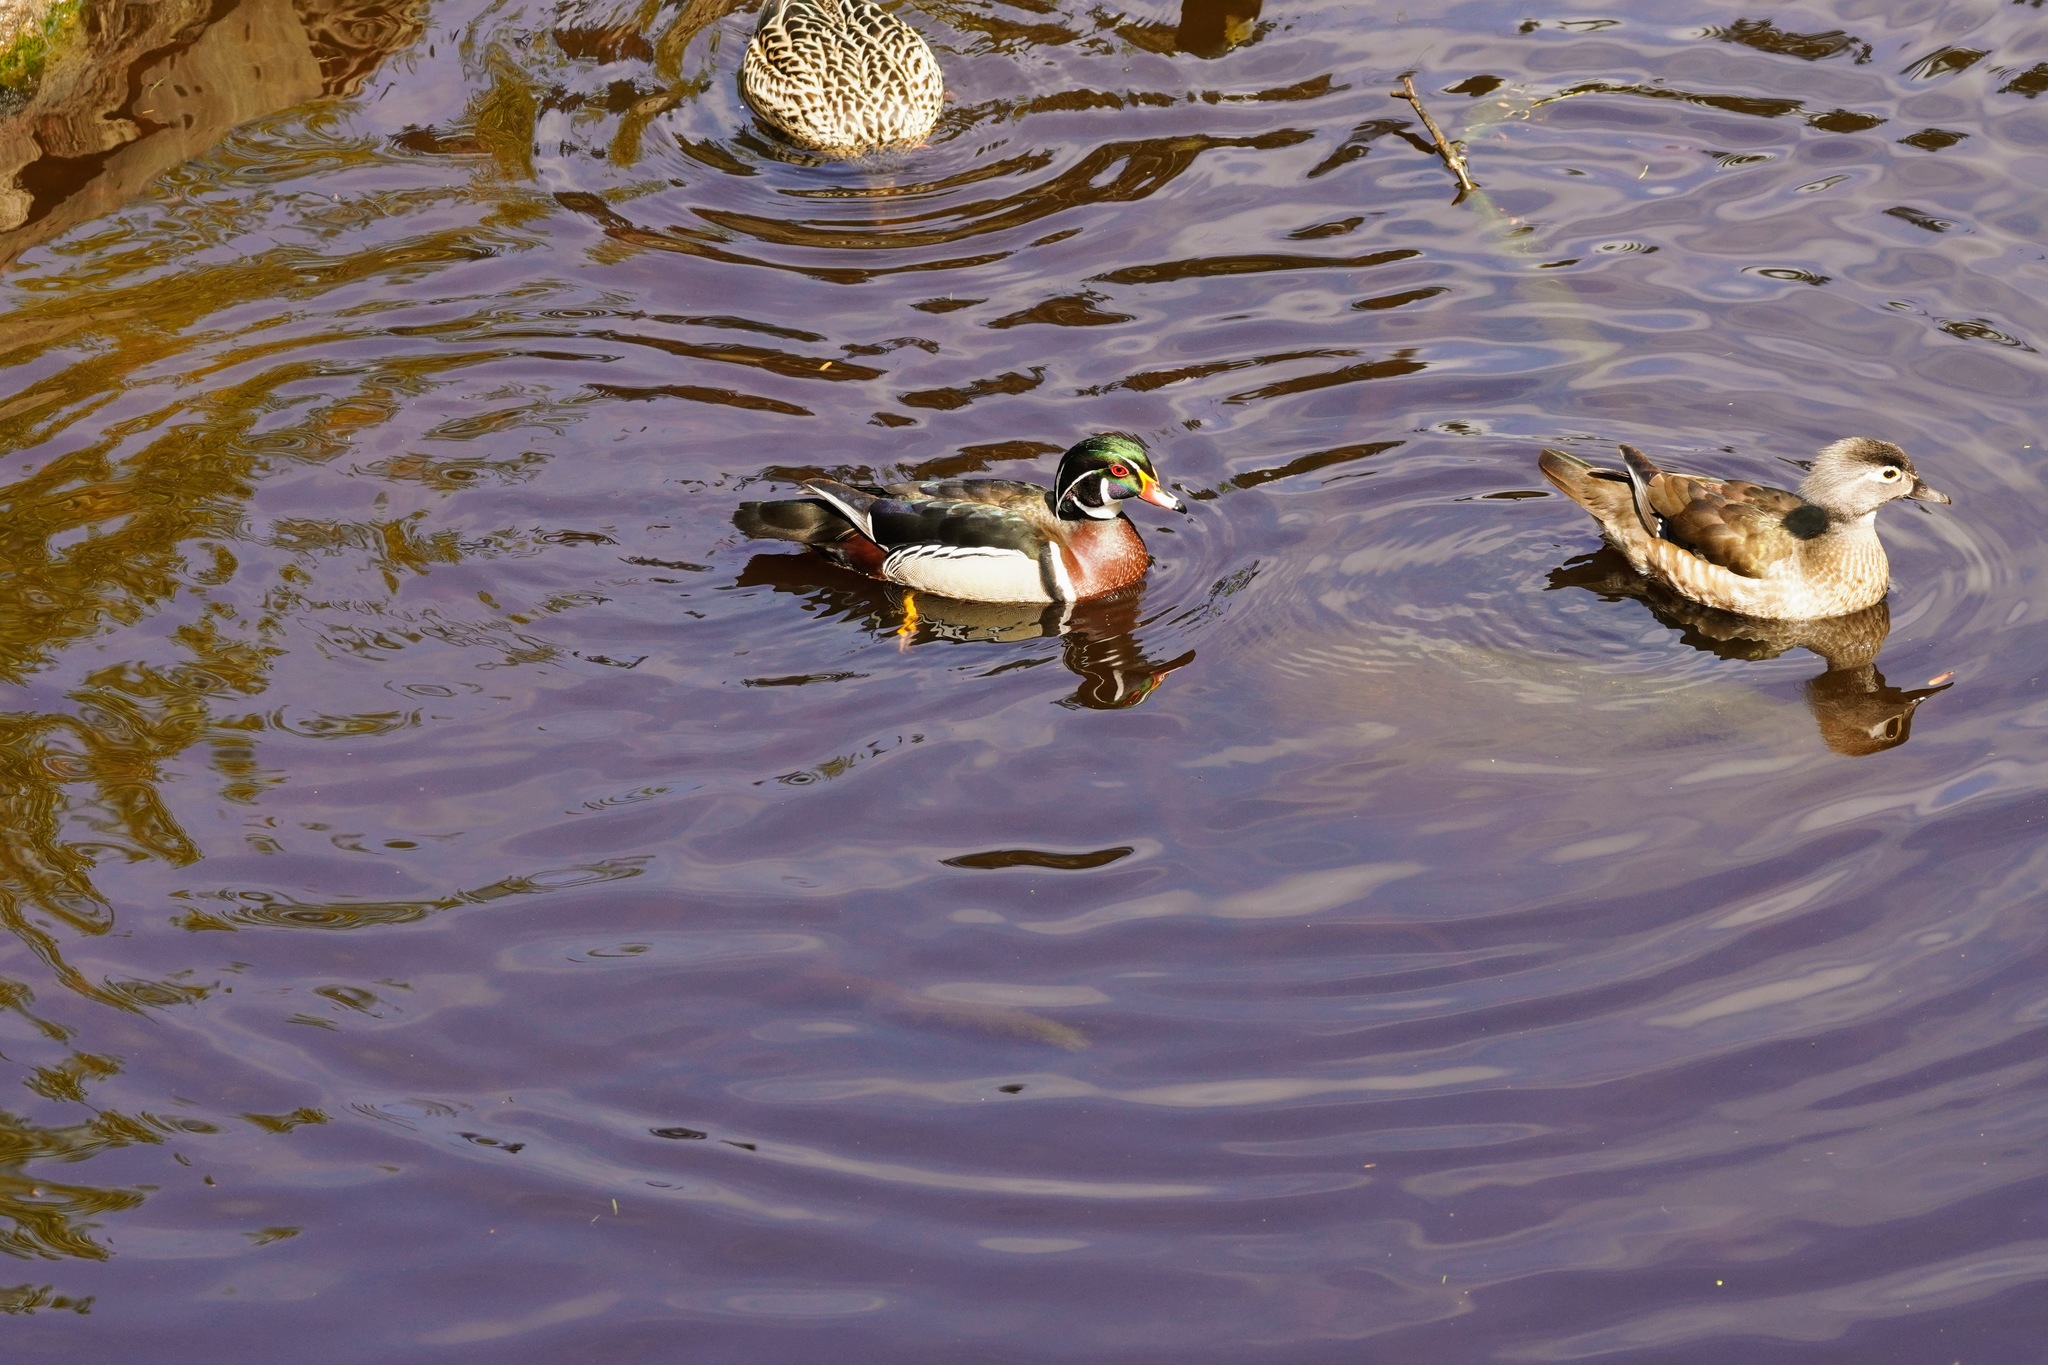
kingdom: Animalia
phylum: Chordata
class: Aves
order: Anseriformes
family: Anatidae
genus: Aix
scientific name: Aix sponsa
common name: Wood duck
